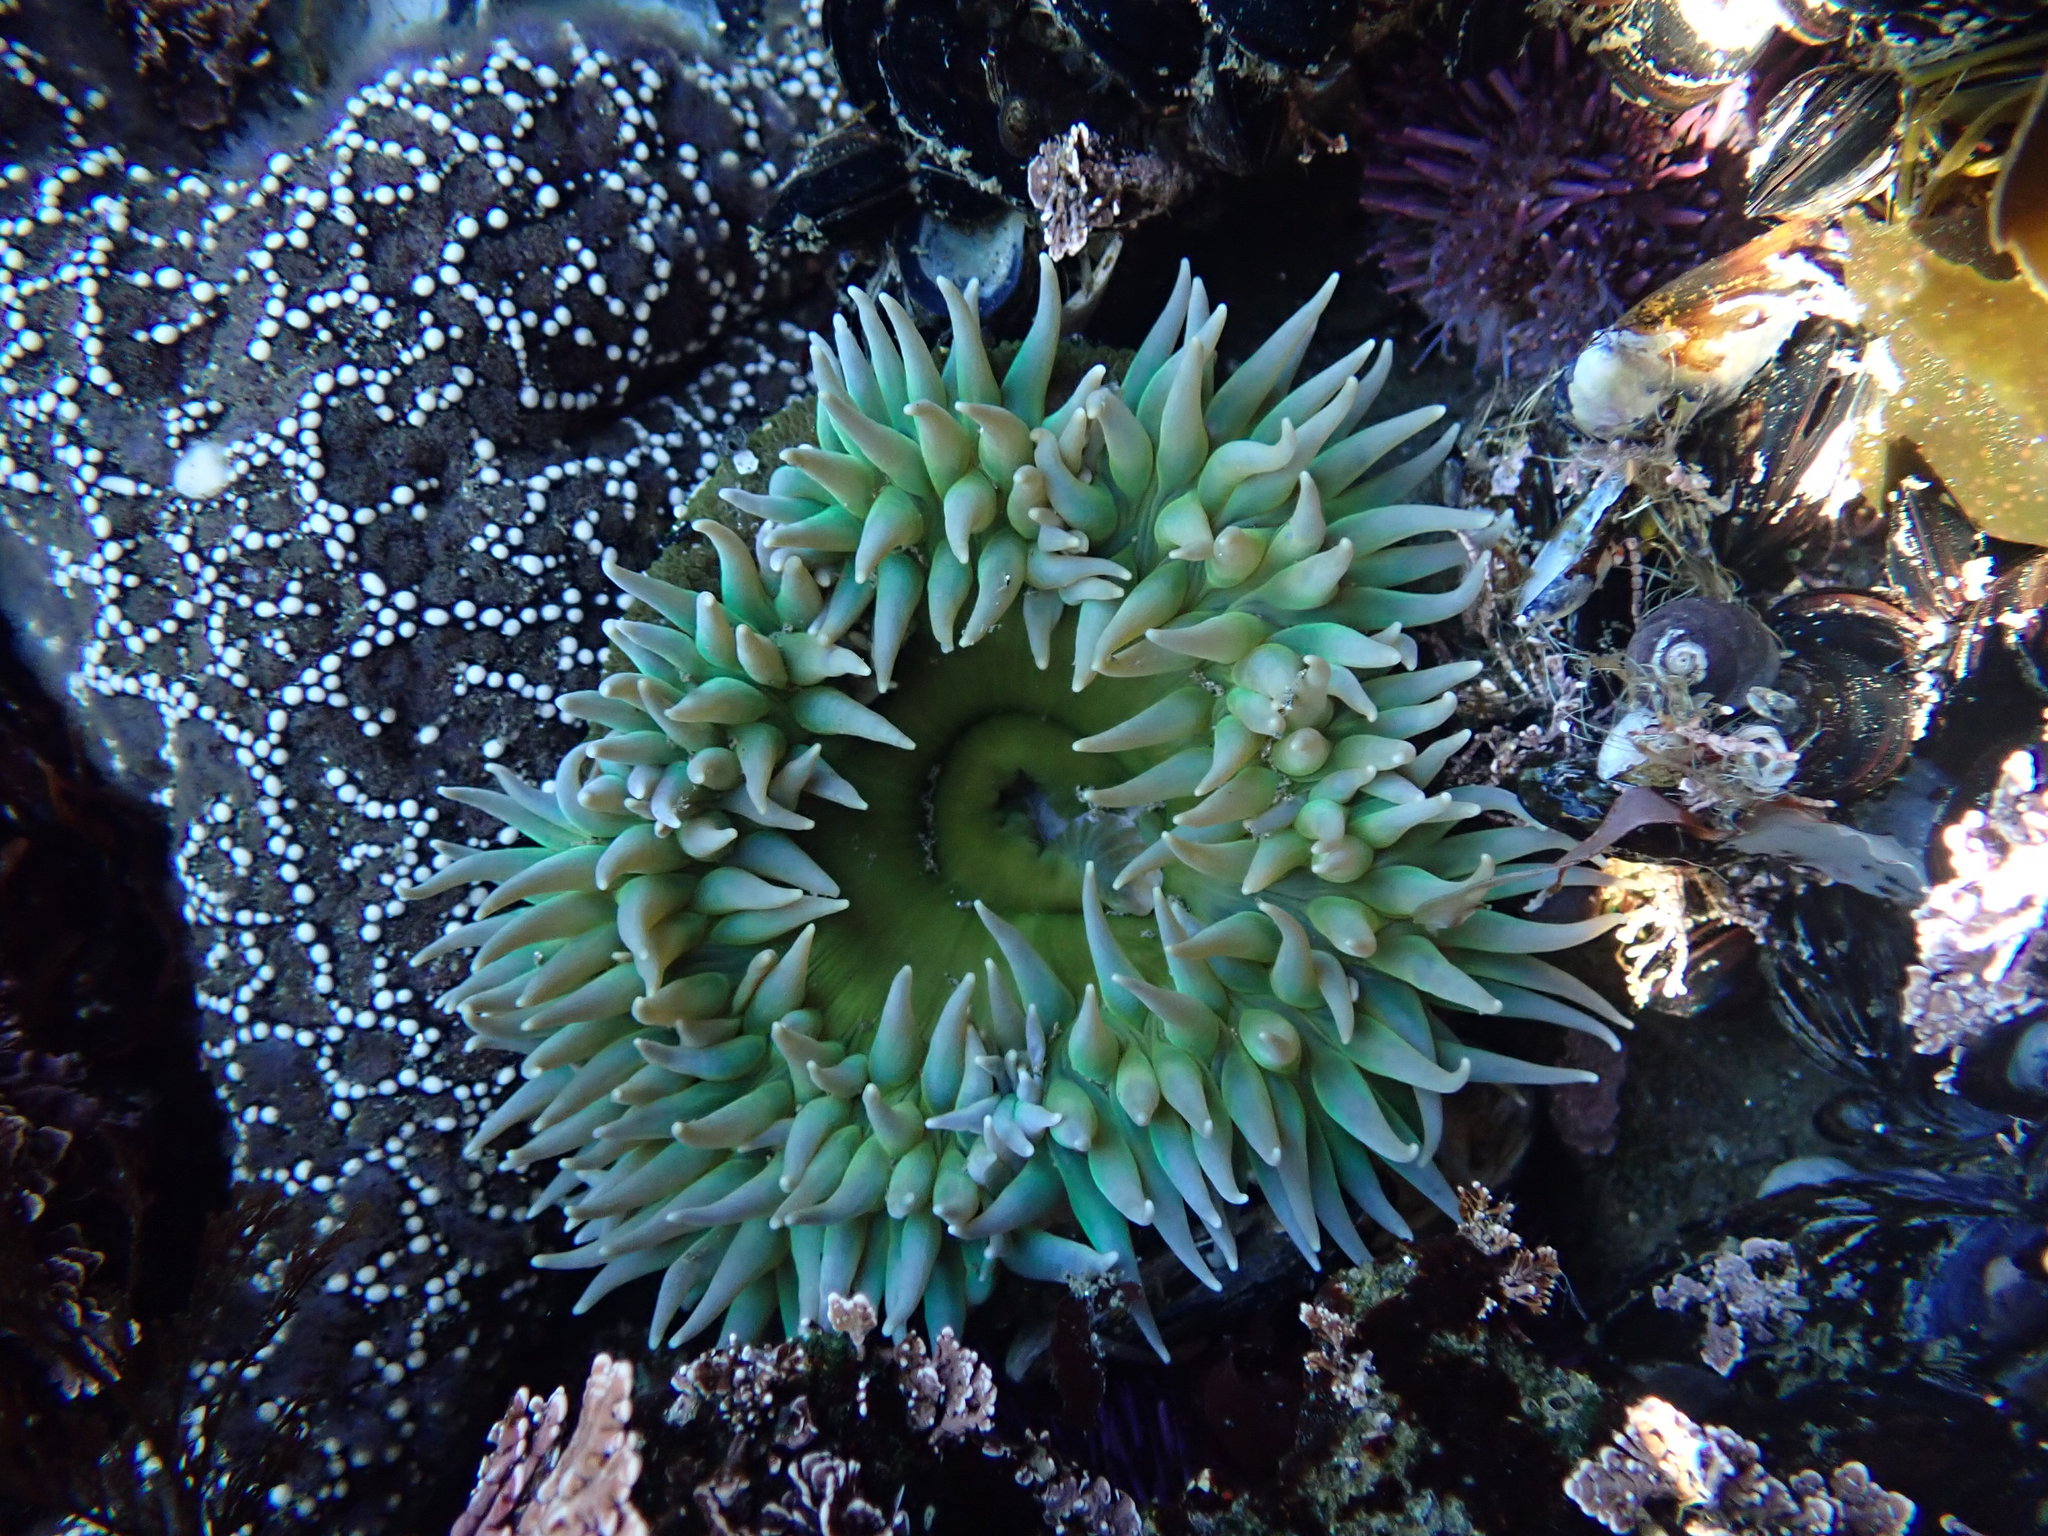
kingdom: Animalia
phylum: Cnidaria
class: Anthozoa
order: Actiniaria
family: Actiniidae
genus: Anthopleura
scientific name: Anthopleura xanthogrammica
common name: Giant green anemone
